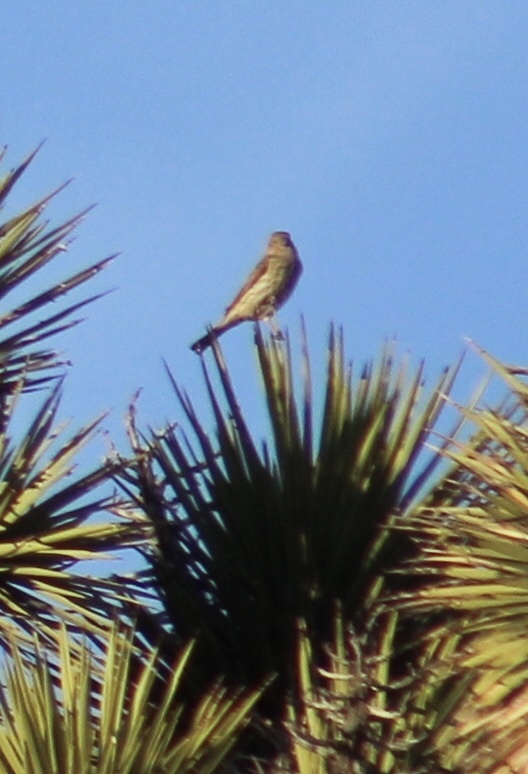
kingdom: Animalia
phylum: Chordata
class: Aves
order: Passeriformes
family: Fringillidae
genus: Haemorhous
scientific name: Haemorhous mexicanus
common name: House finch
